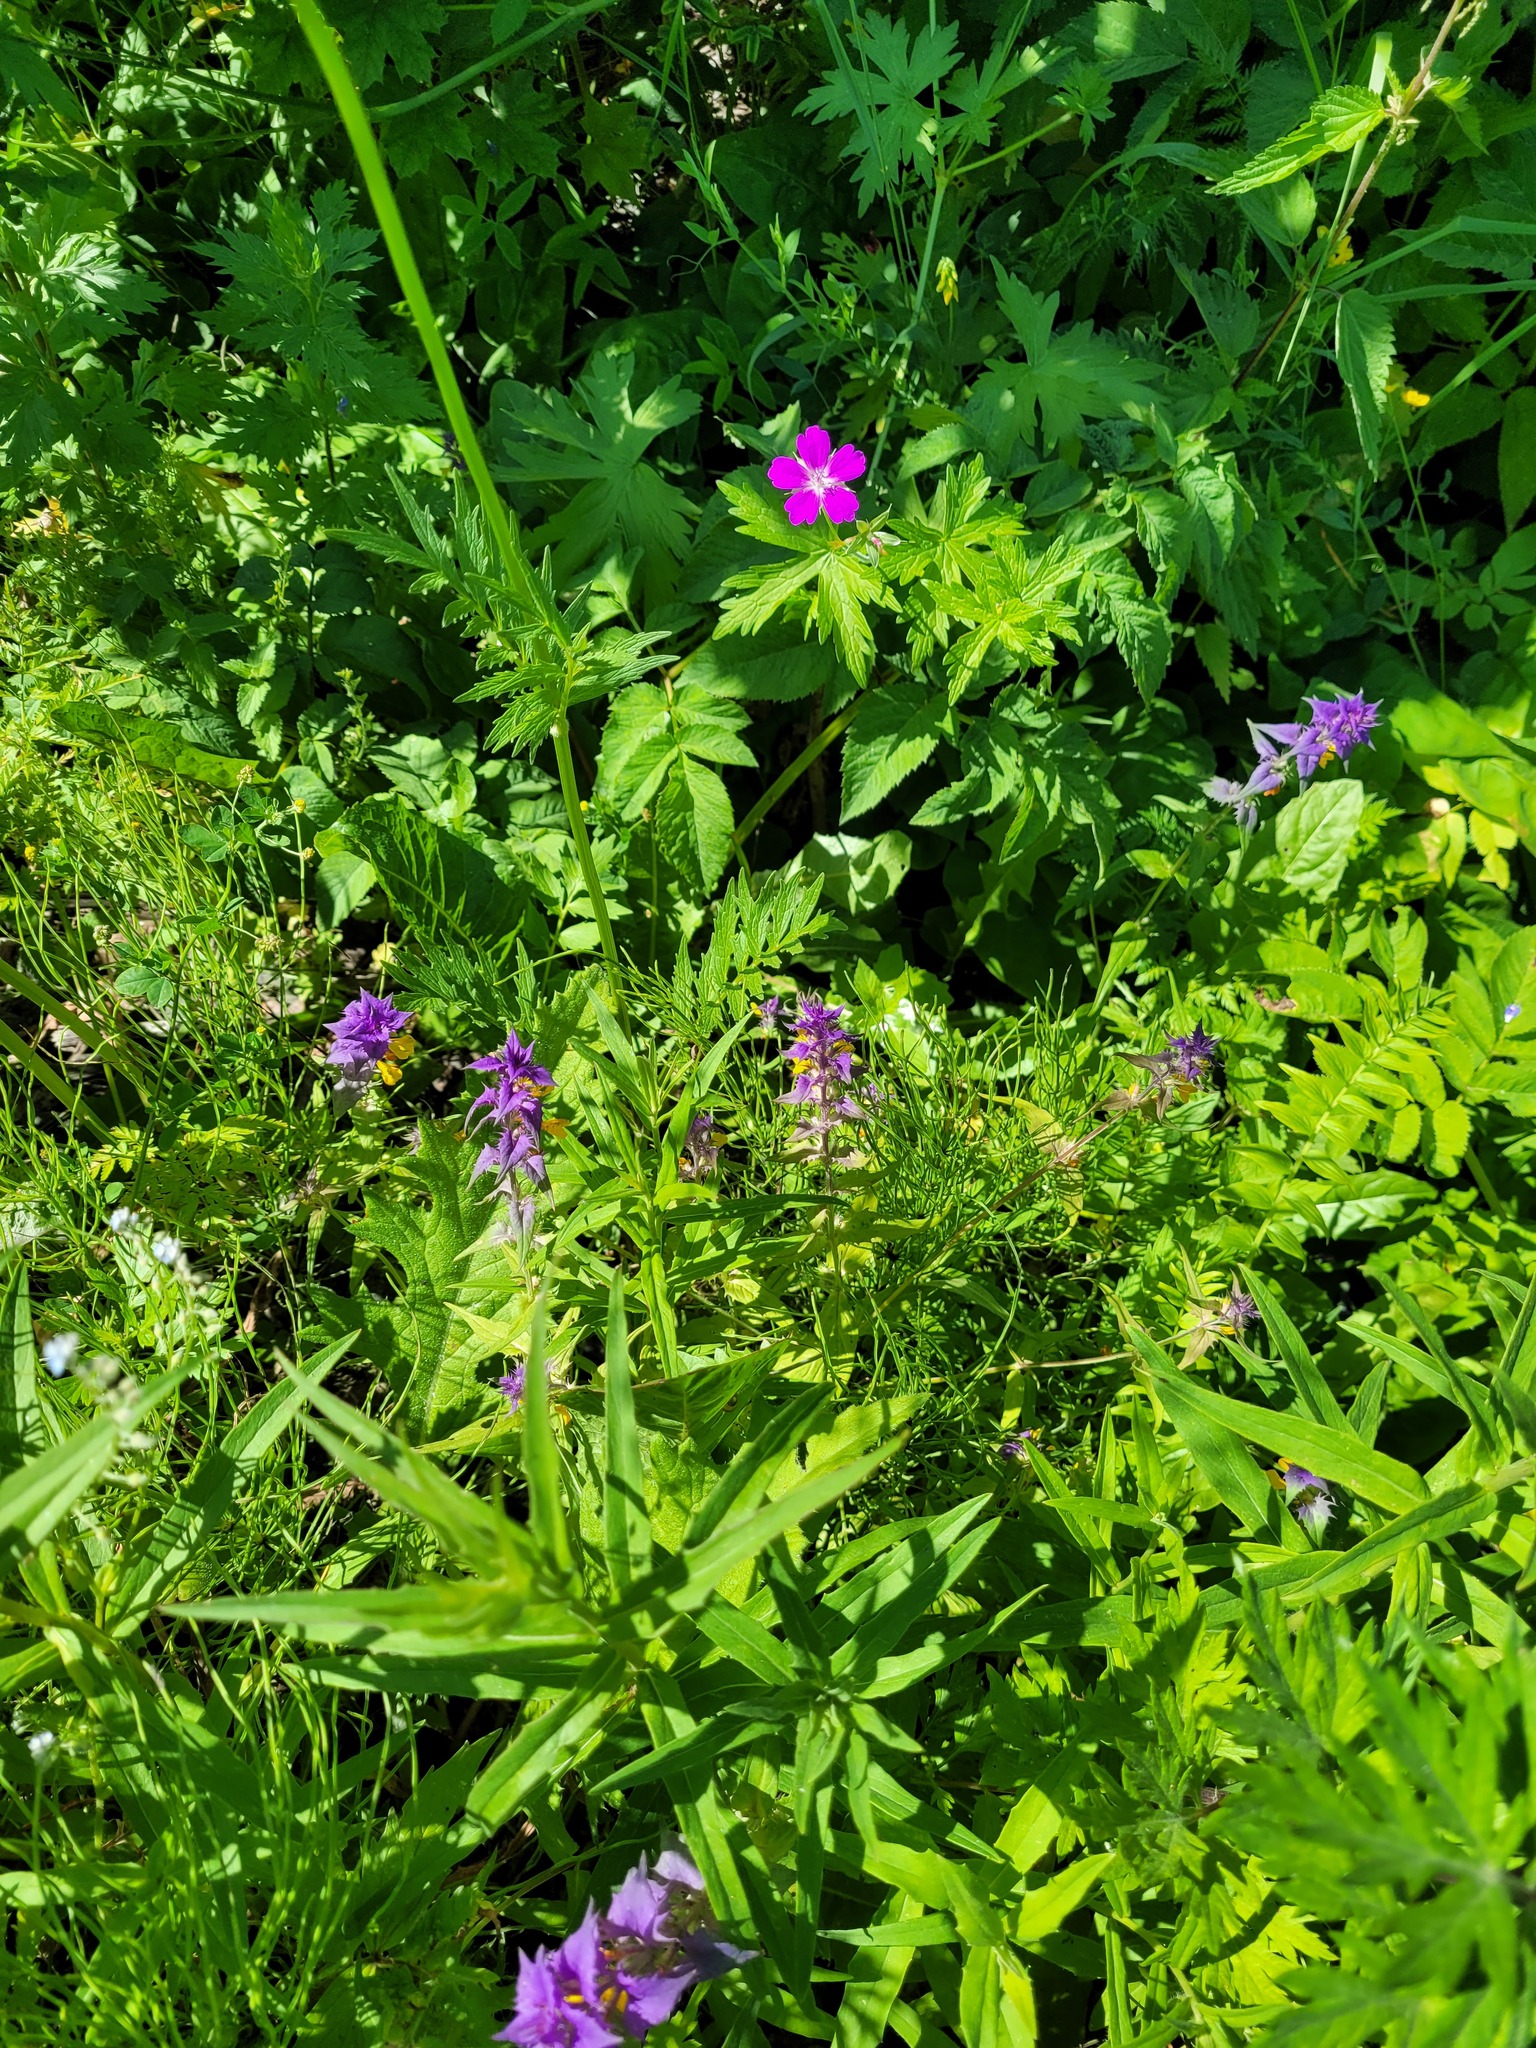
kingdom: Plantae
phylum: Tracheophyta
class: Magnoliopsida
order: Lamiales
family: Orobanchaceae
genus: Melampyrum
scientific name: Melampyrum nemorosum
